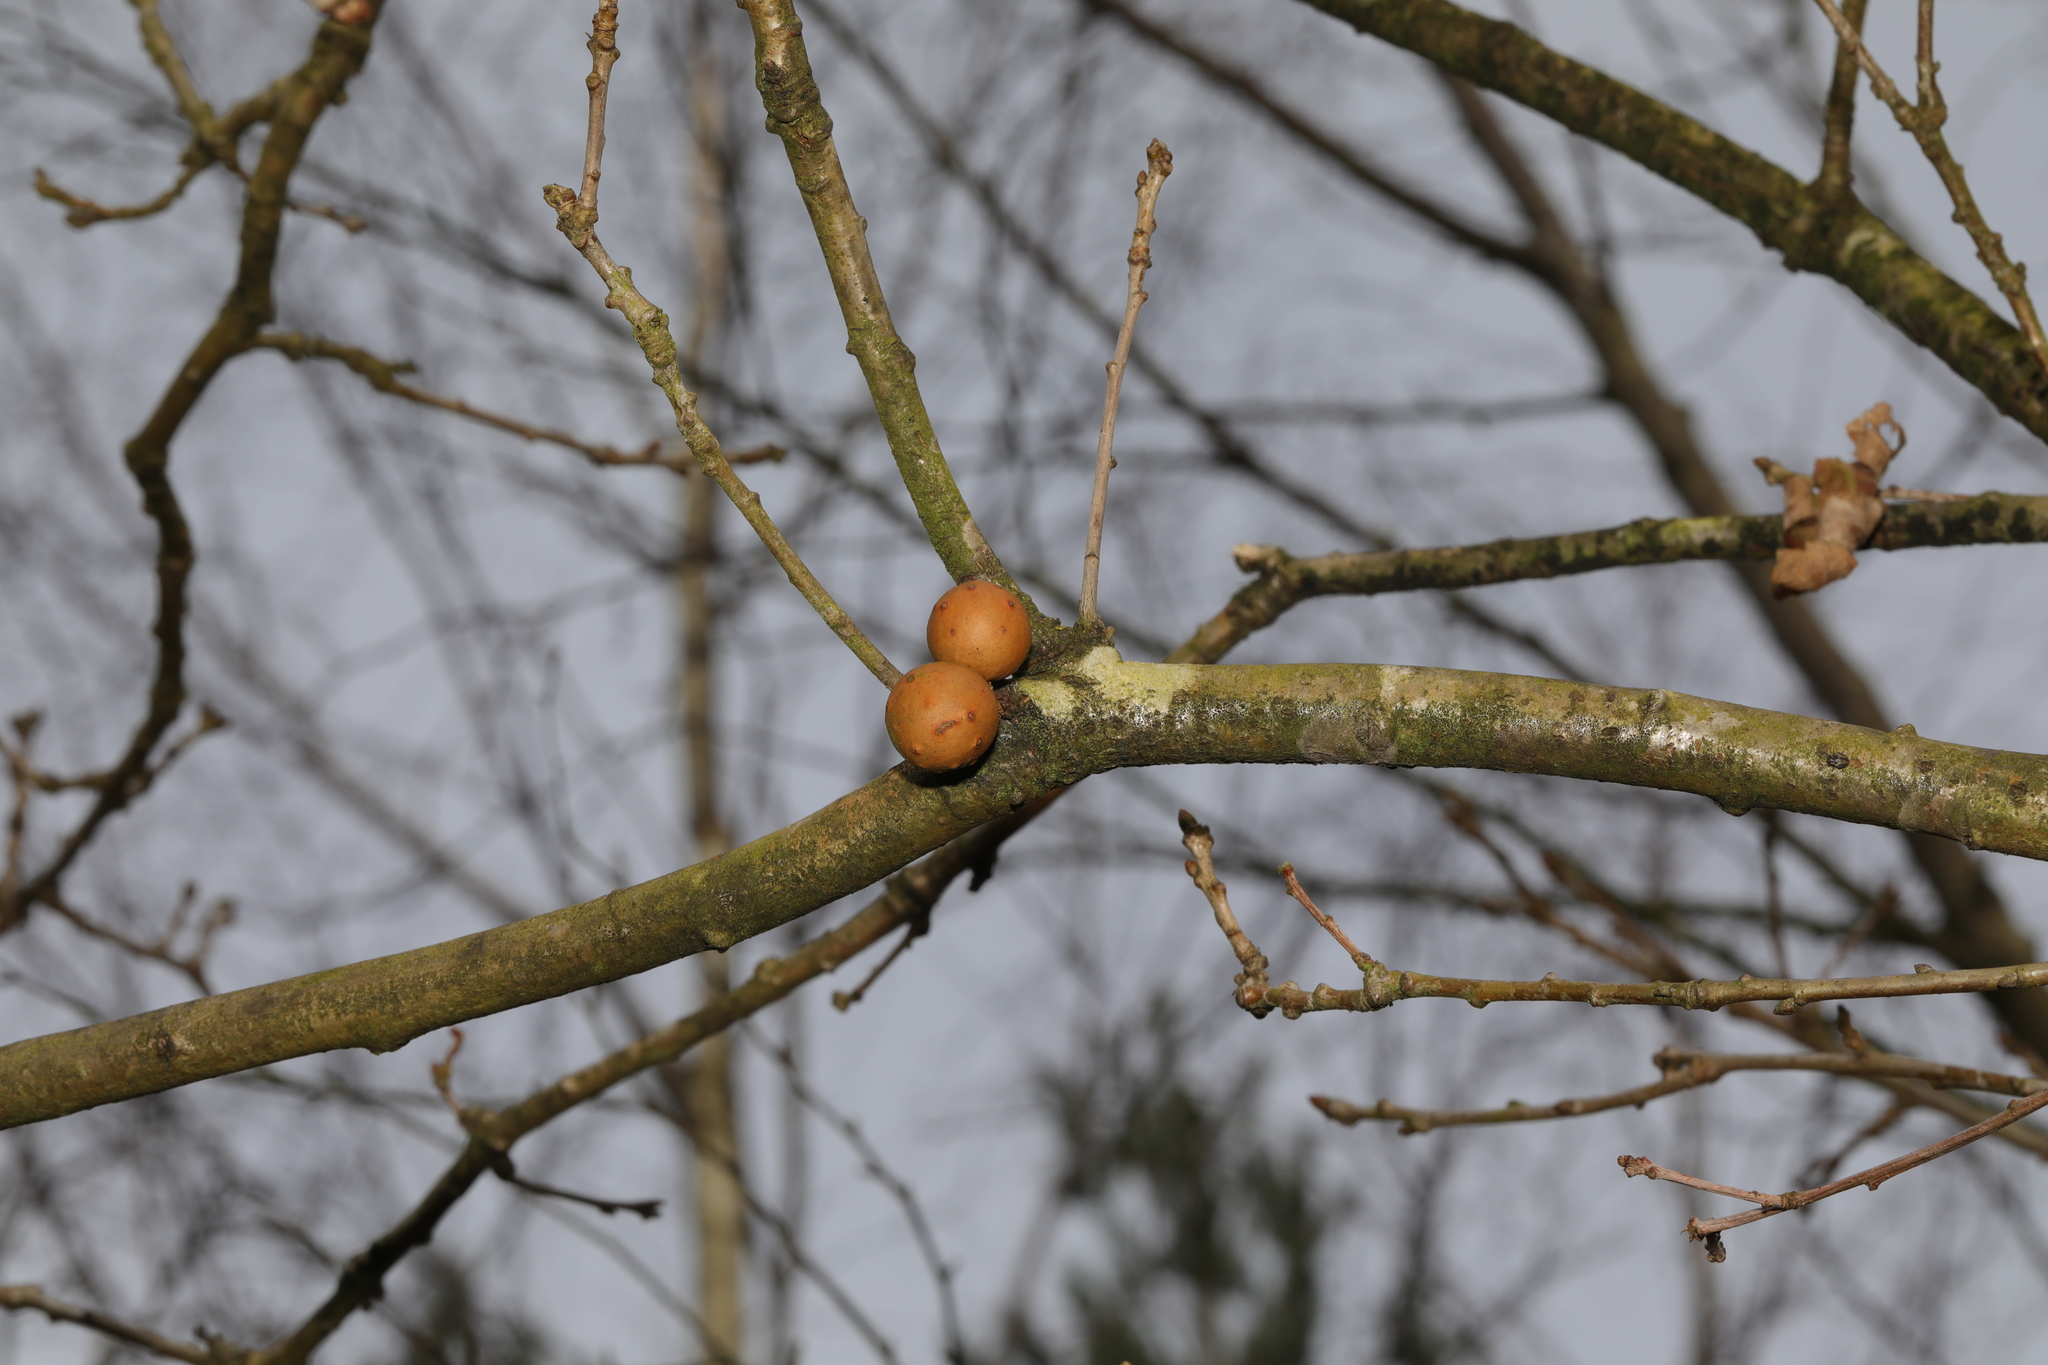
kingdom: Animalia
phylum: Arthropoda
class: Insecta
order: Hymenoptera
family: Cynipidae
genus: Andricus
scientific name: Andricus kollari
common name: Marble gall
